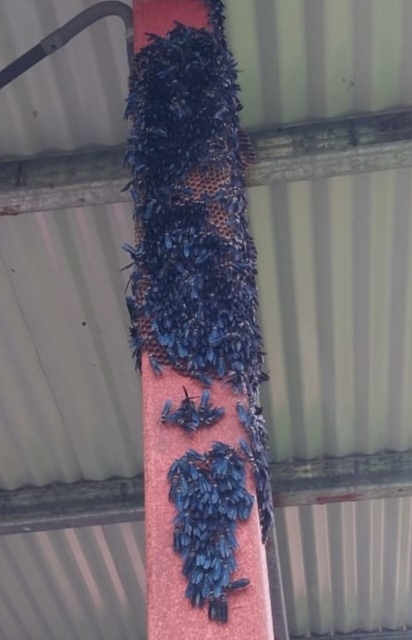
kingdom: Animalia
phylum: Arthropoda
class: Insecta
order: Hymenoptera
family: Vespidae
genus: Synoeca
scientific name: Synoeca septentrionalis
